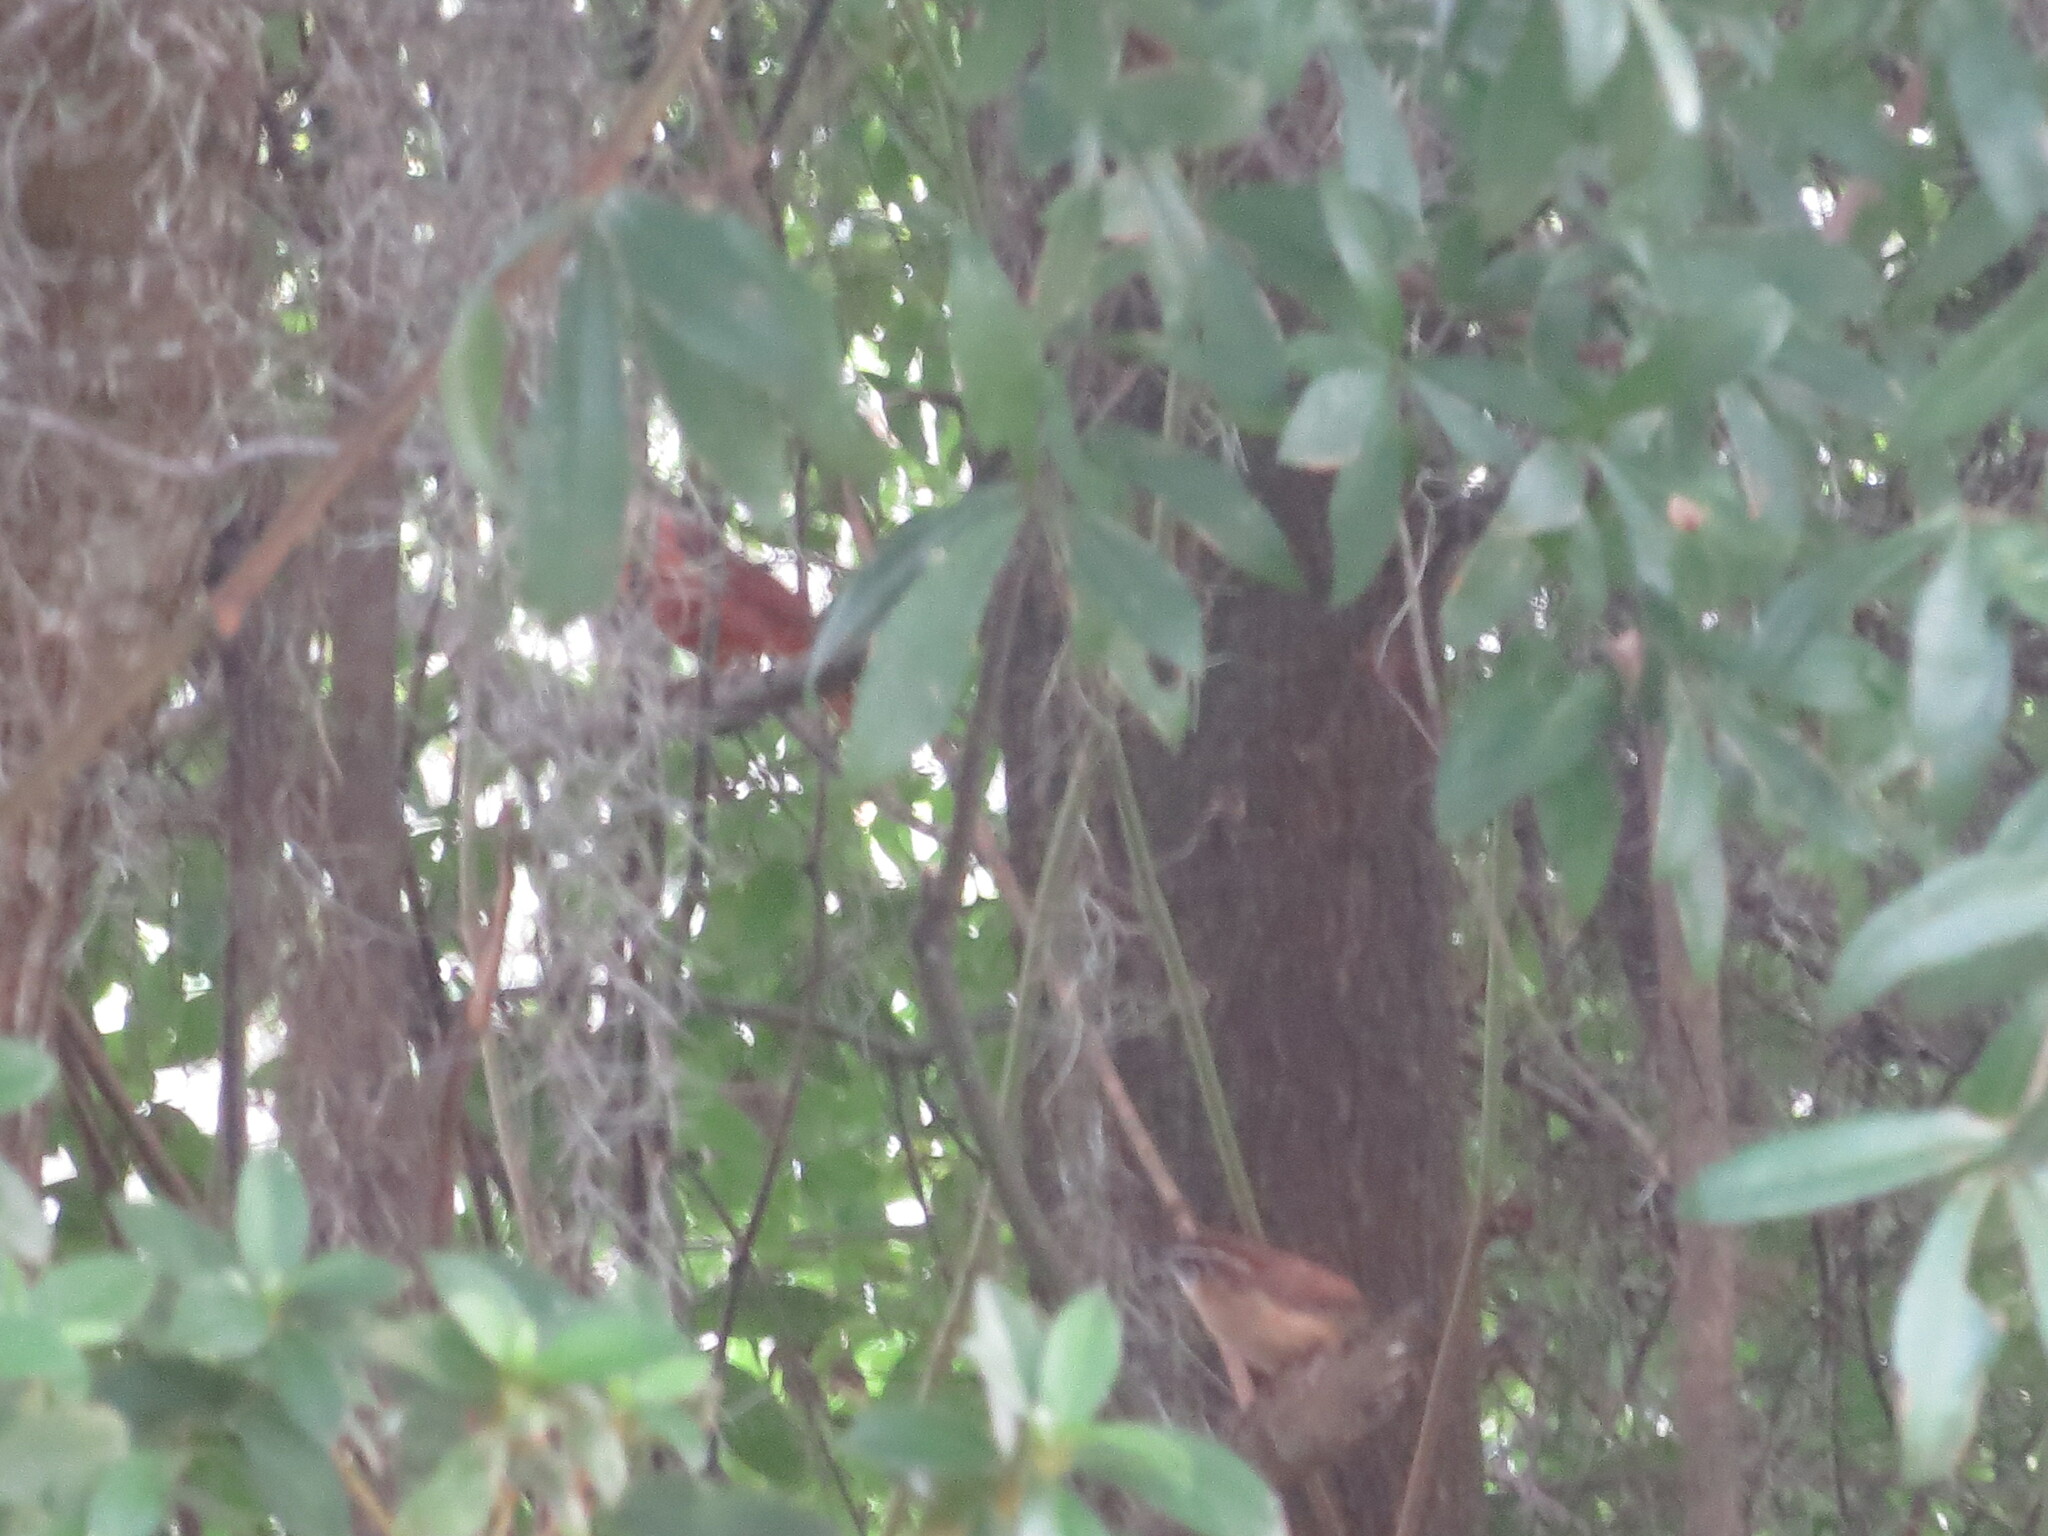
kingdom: Animalia
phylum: Chordata
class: Aves
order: Passeriformes
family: Troglodytidae
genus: Thryothorus
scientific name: Thryothorus ludovicianus
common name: Carolina wren
